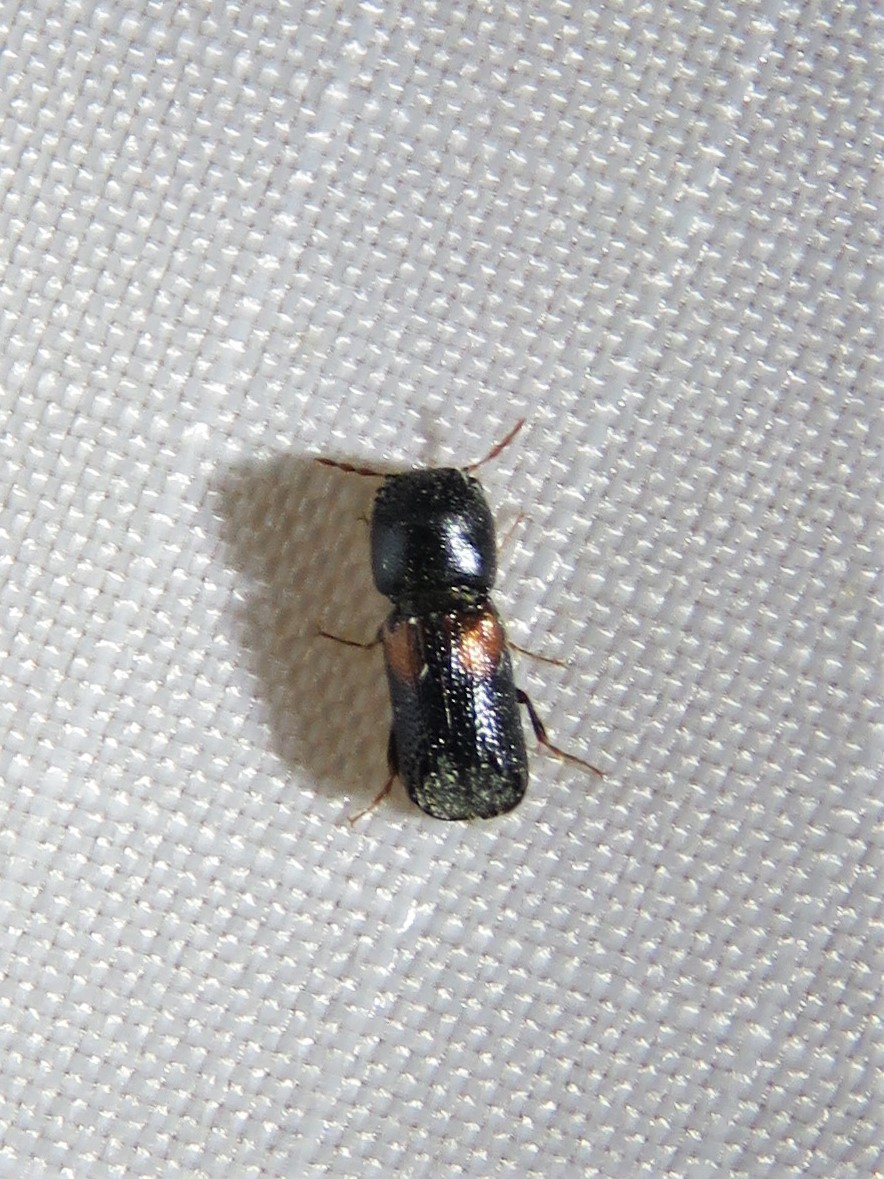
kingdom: Animalia
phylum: Arthropoda
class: Insecta
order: Coleoptera
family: Bostrichidae
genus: Xylobiops
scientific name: Xylobiops basilaris
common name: Red-shouldered bostrichid
